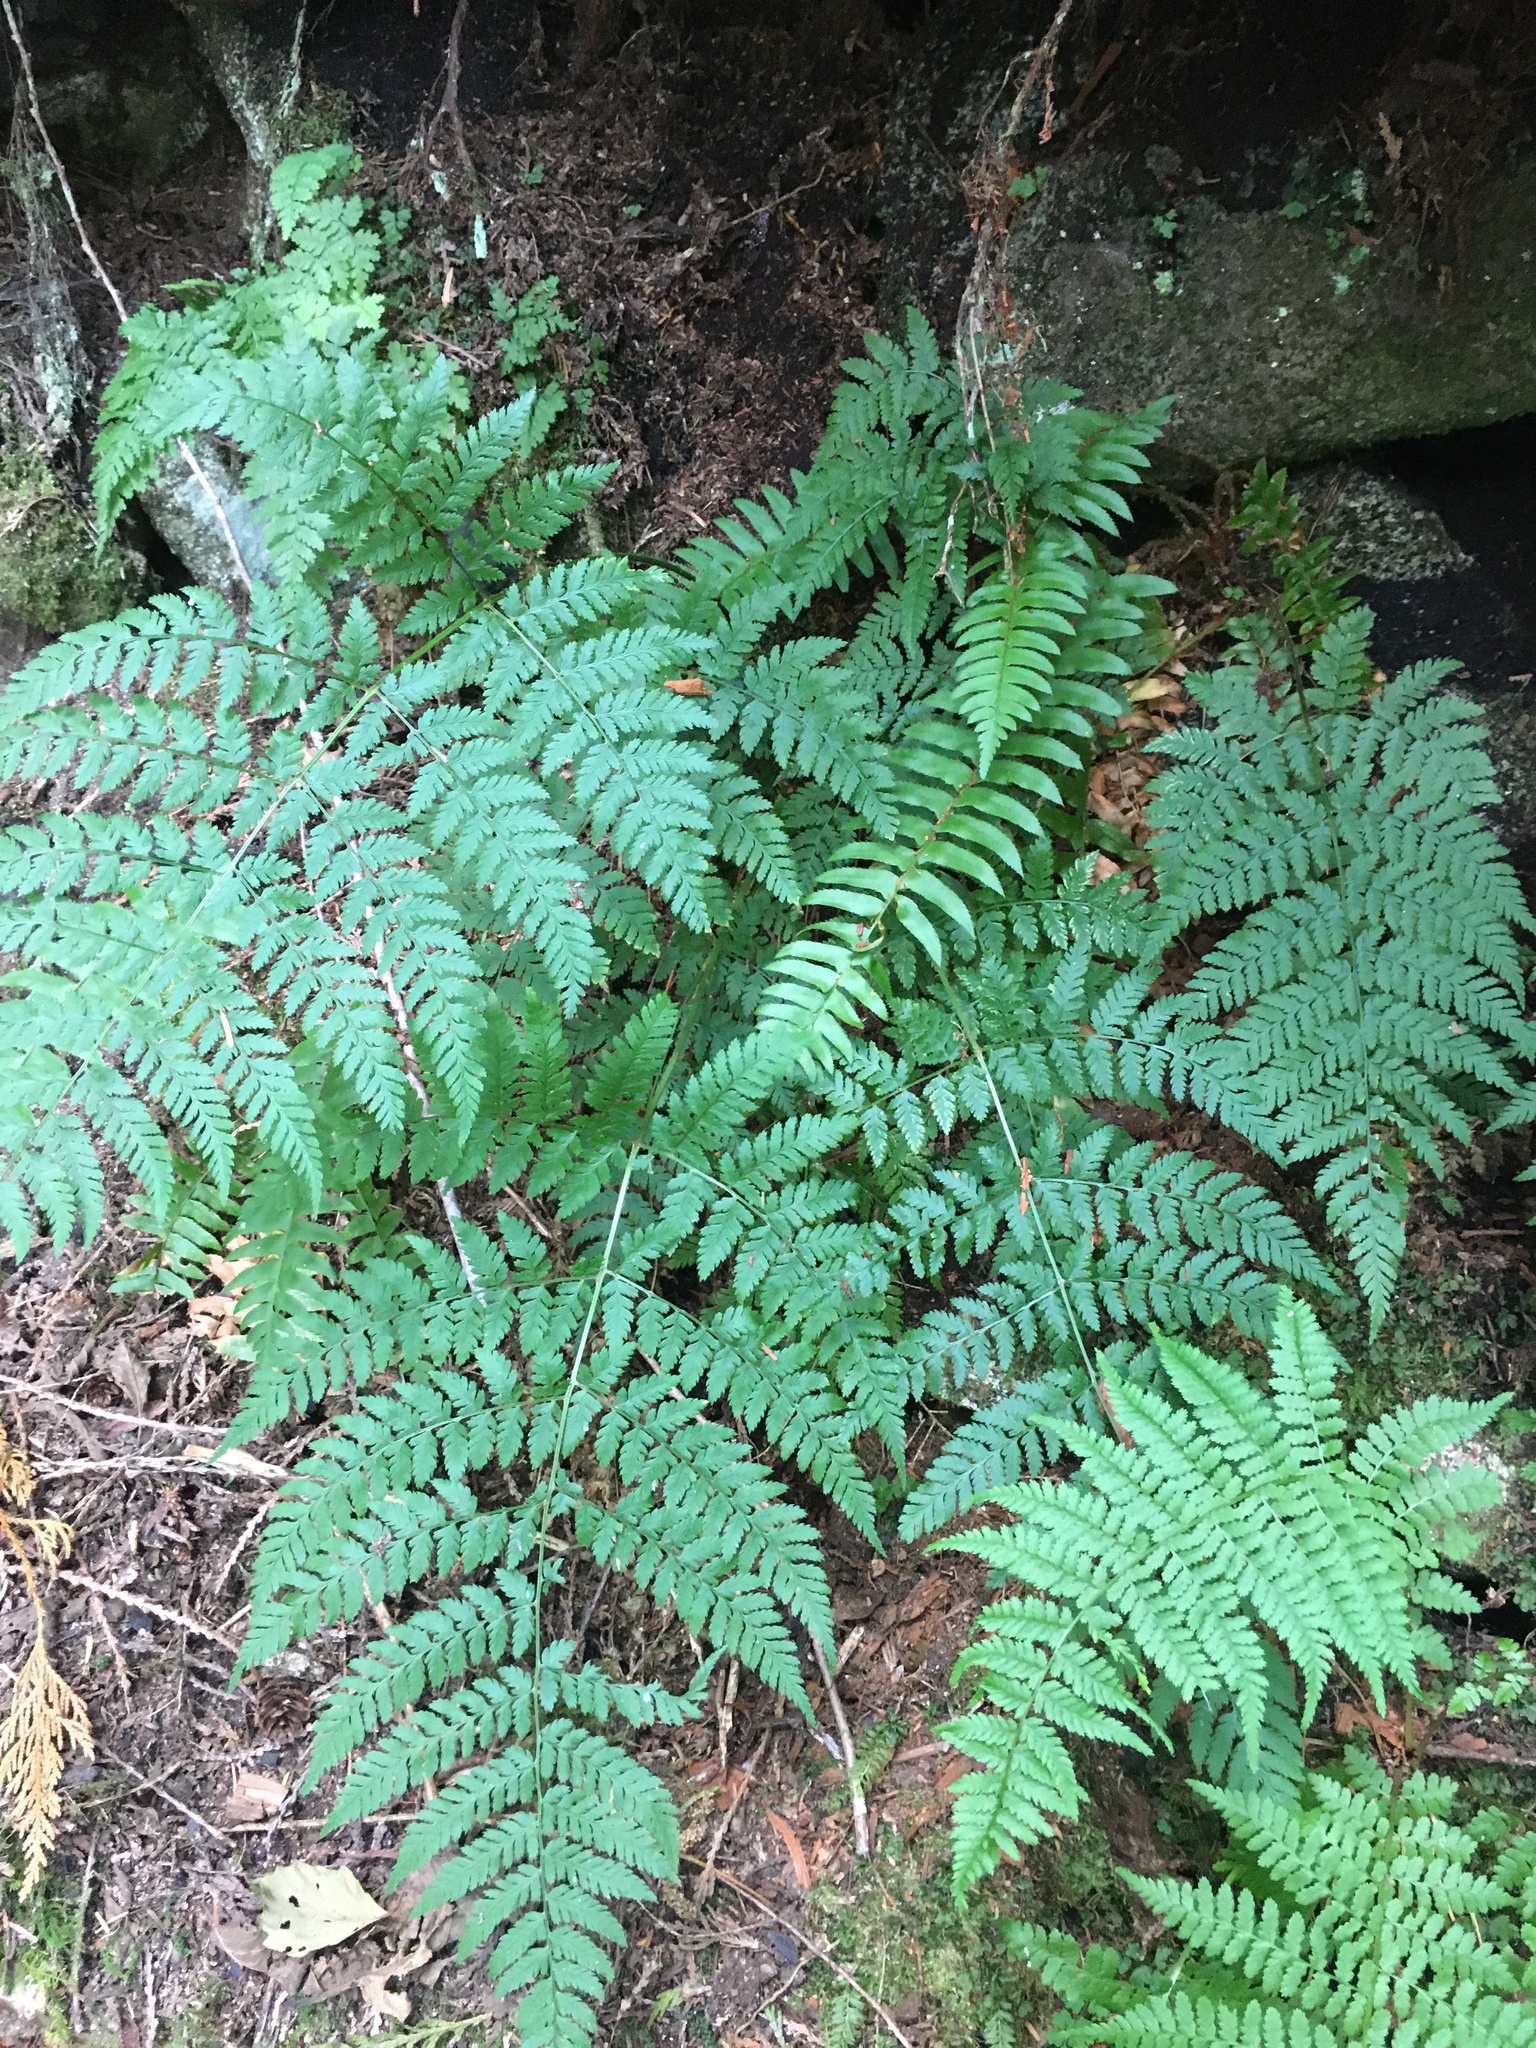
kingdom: Plantae
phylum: Tracheophyta
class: Polypodiopsida
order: Polypodiales
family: Dryopteridaceae
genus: Dryopteris
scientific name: Dryopteris expansa
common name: Northern buckler fern
